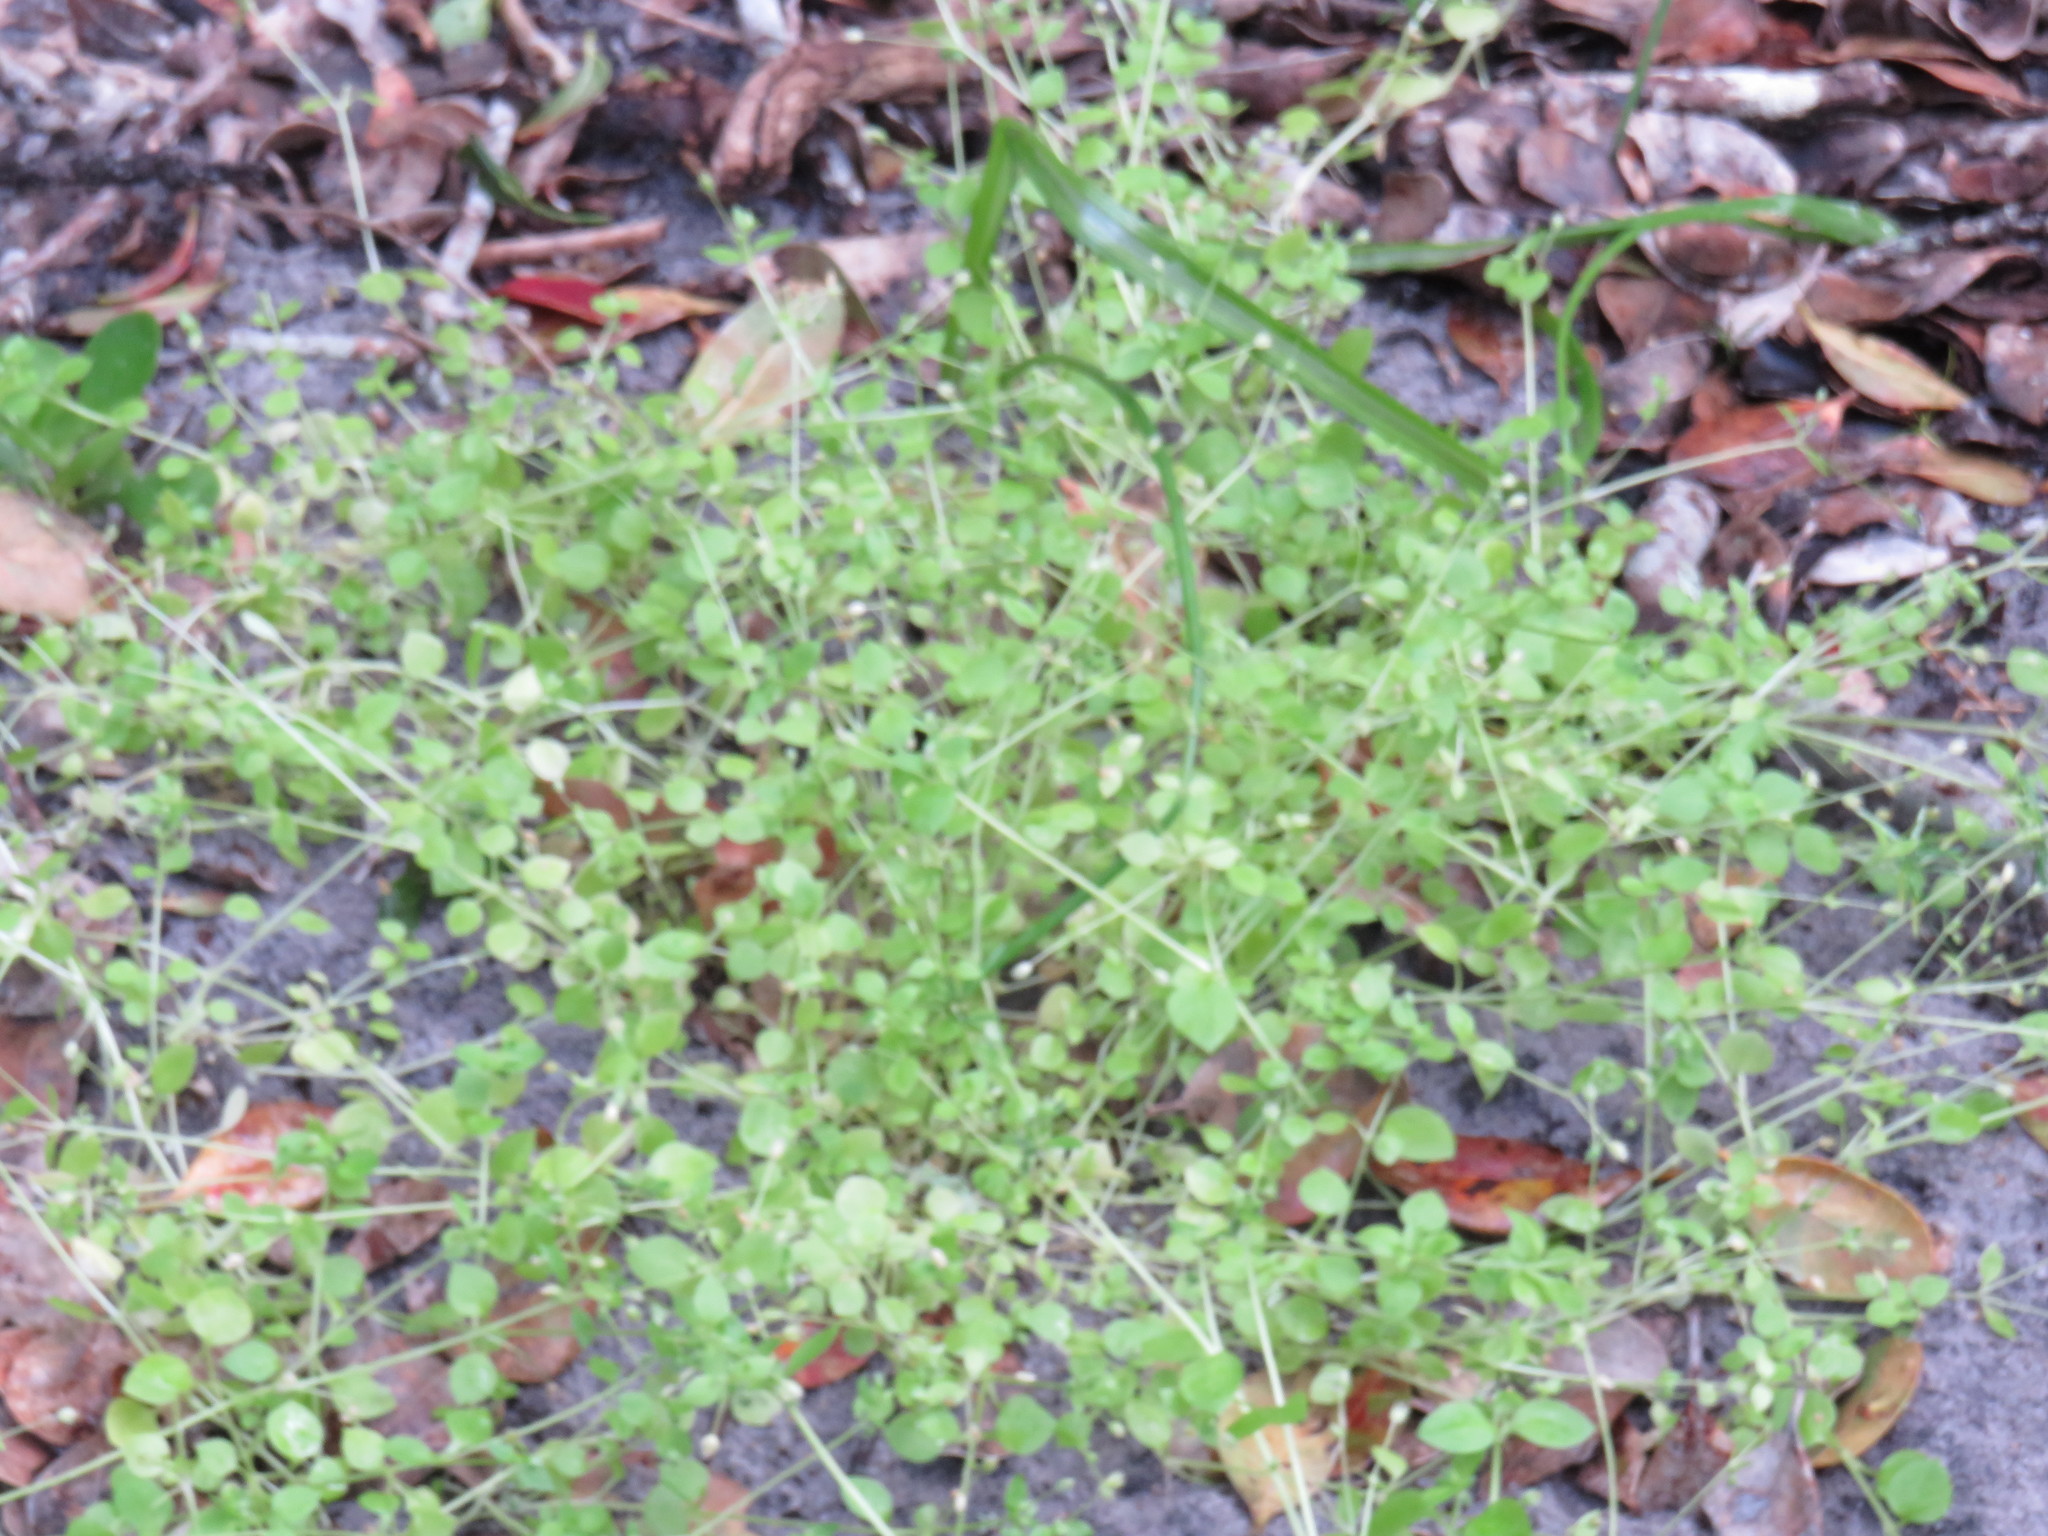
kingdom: Plantae
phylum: Tracheophyta
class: Magnoliopsida
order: Caryophyllales
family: Caryophyllaceae
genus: Stellaria
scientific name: Stellaria media
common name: Common chickweed
